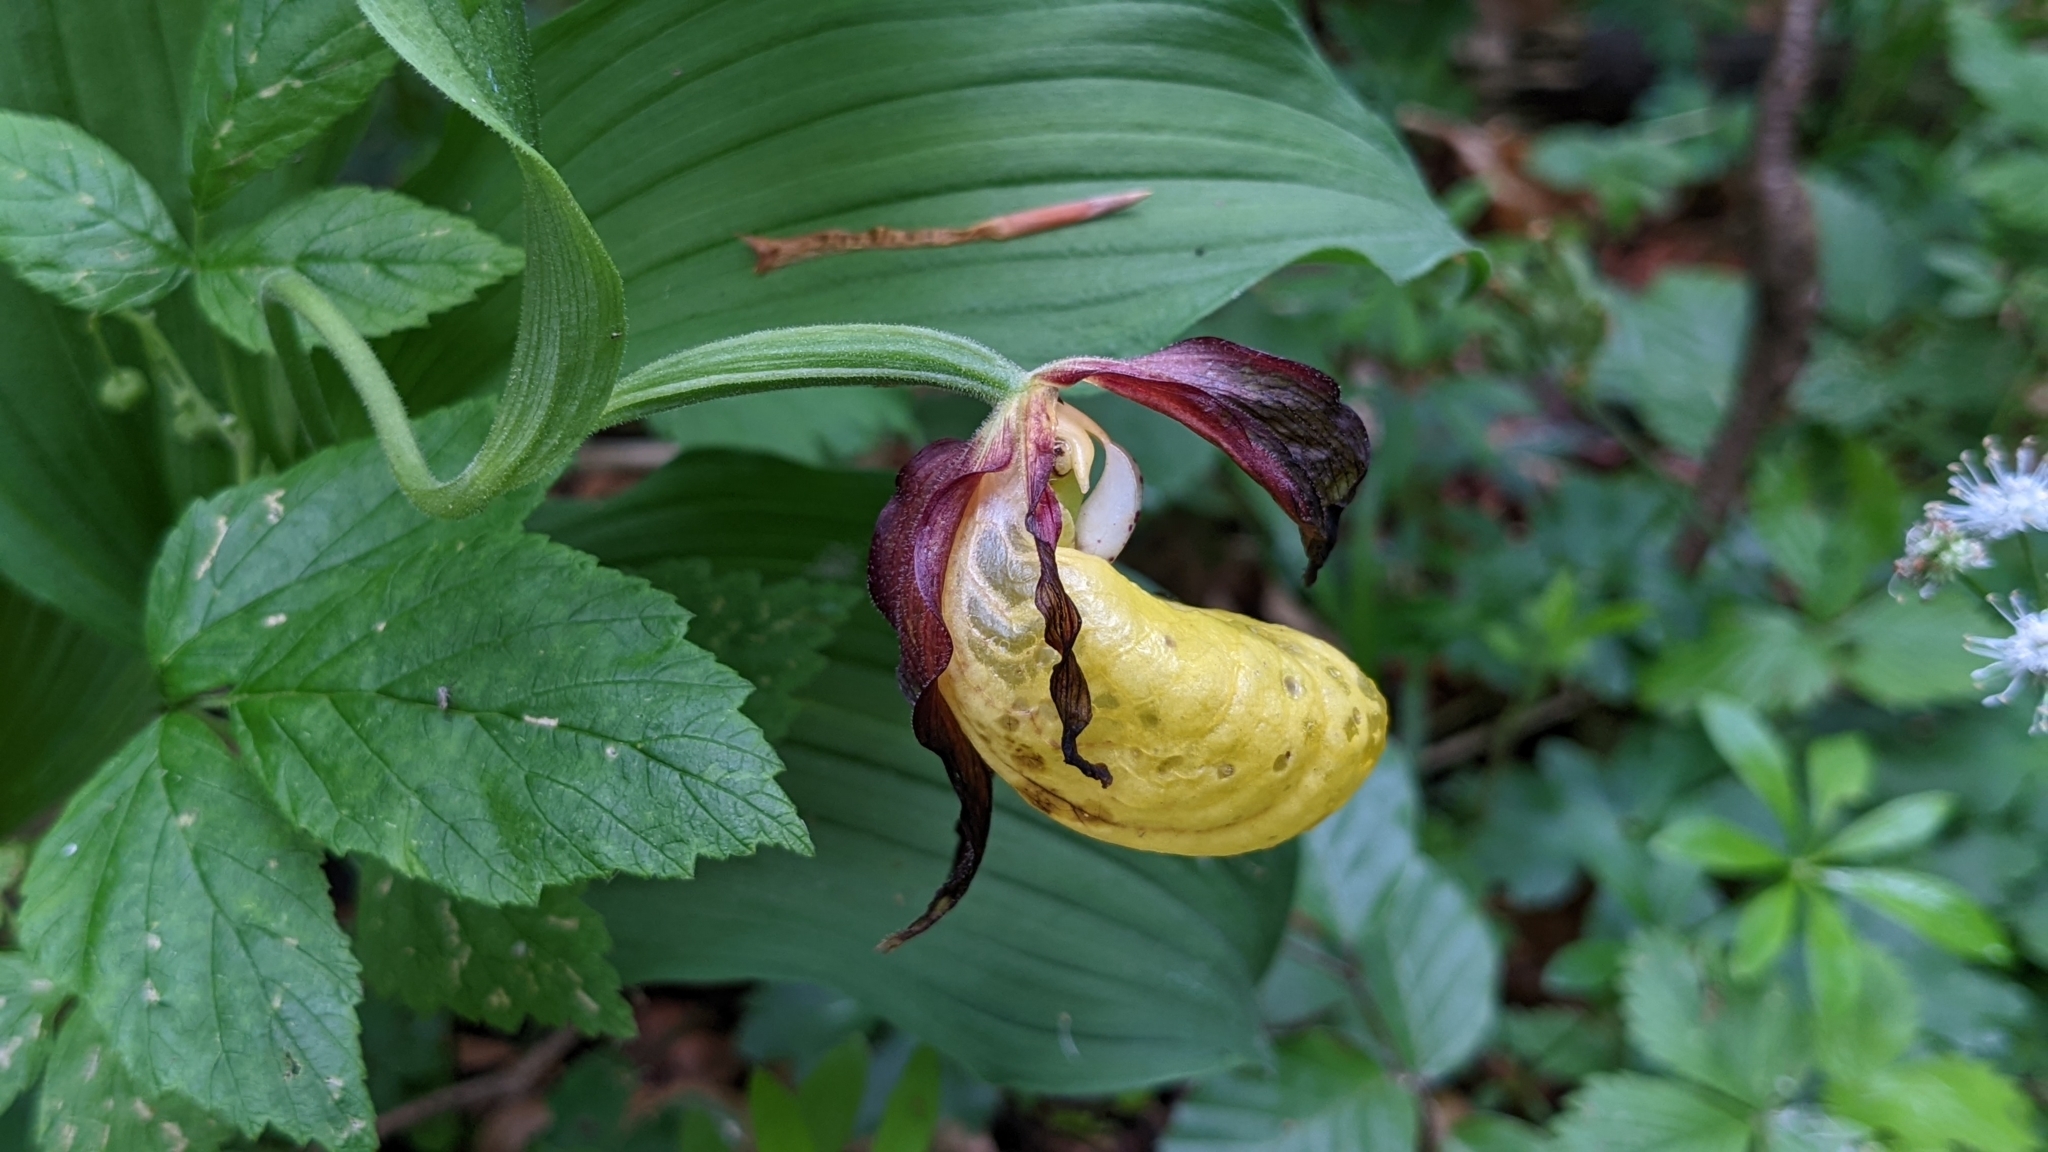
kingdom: Plantae
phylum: Tracheophyta
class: Liliopsida
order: Asparagales
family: Orchidaceae
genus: Cypripedium
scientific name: Cypripedium calceolus
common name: Lady's-slipper
